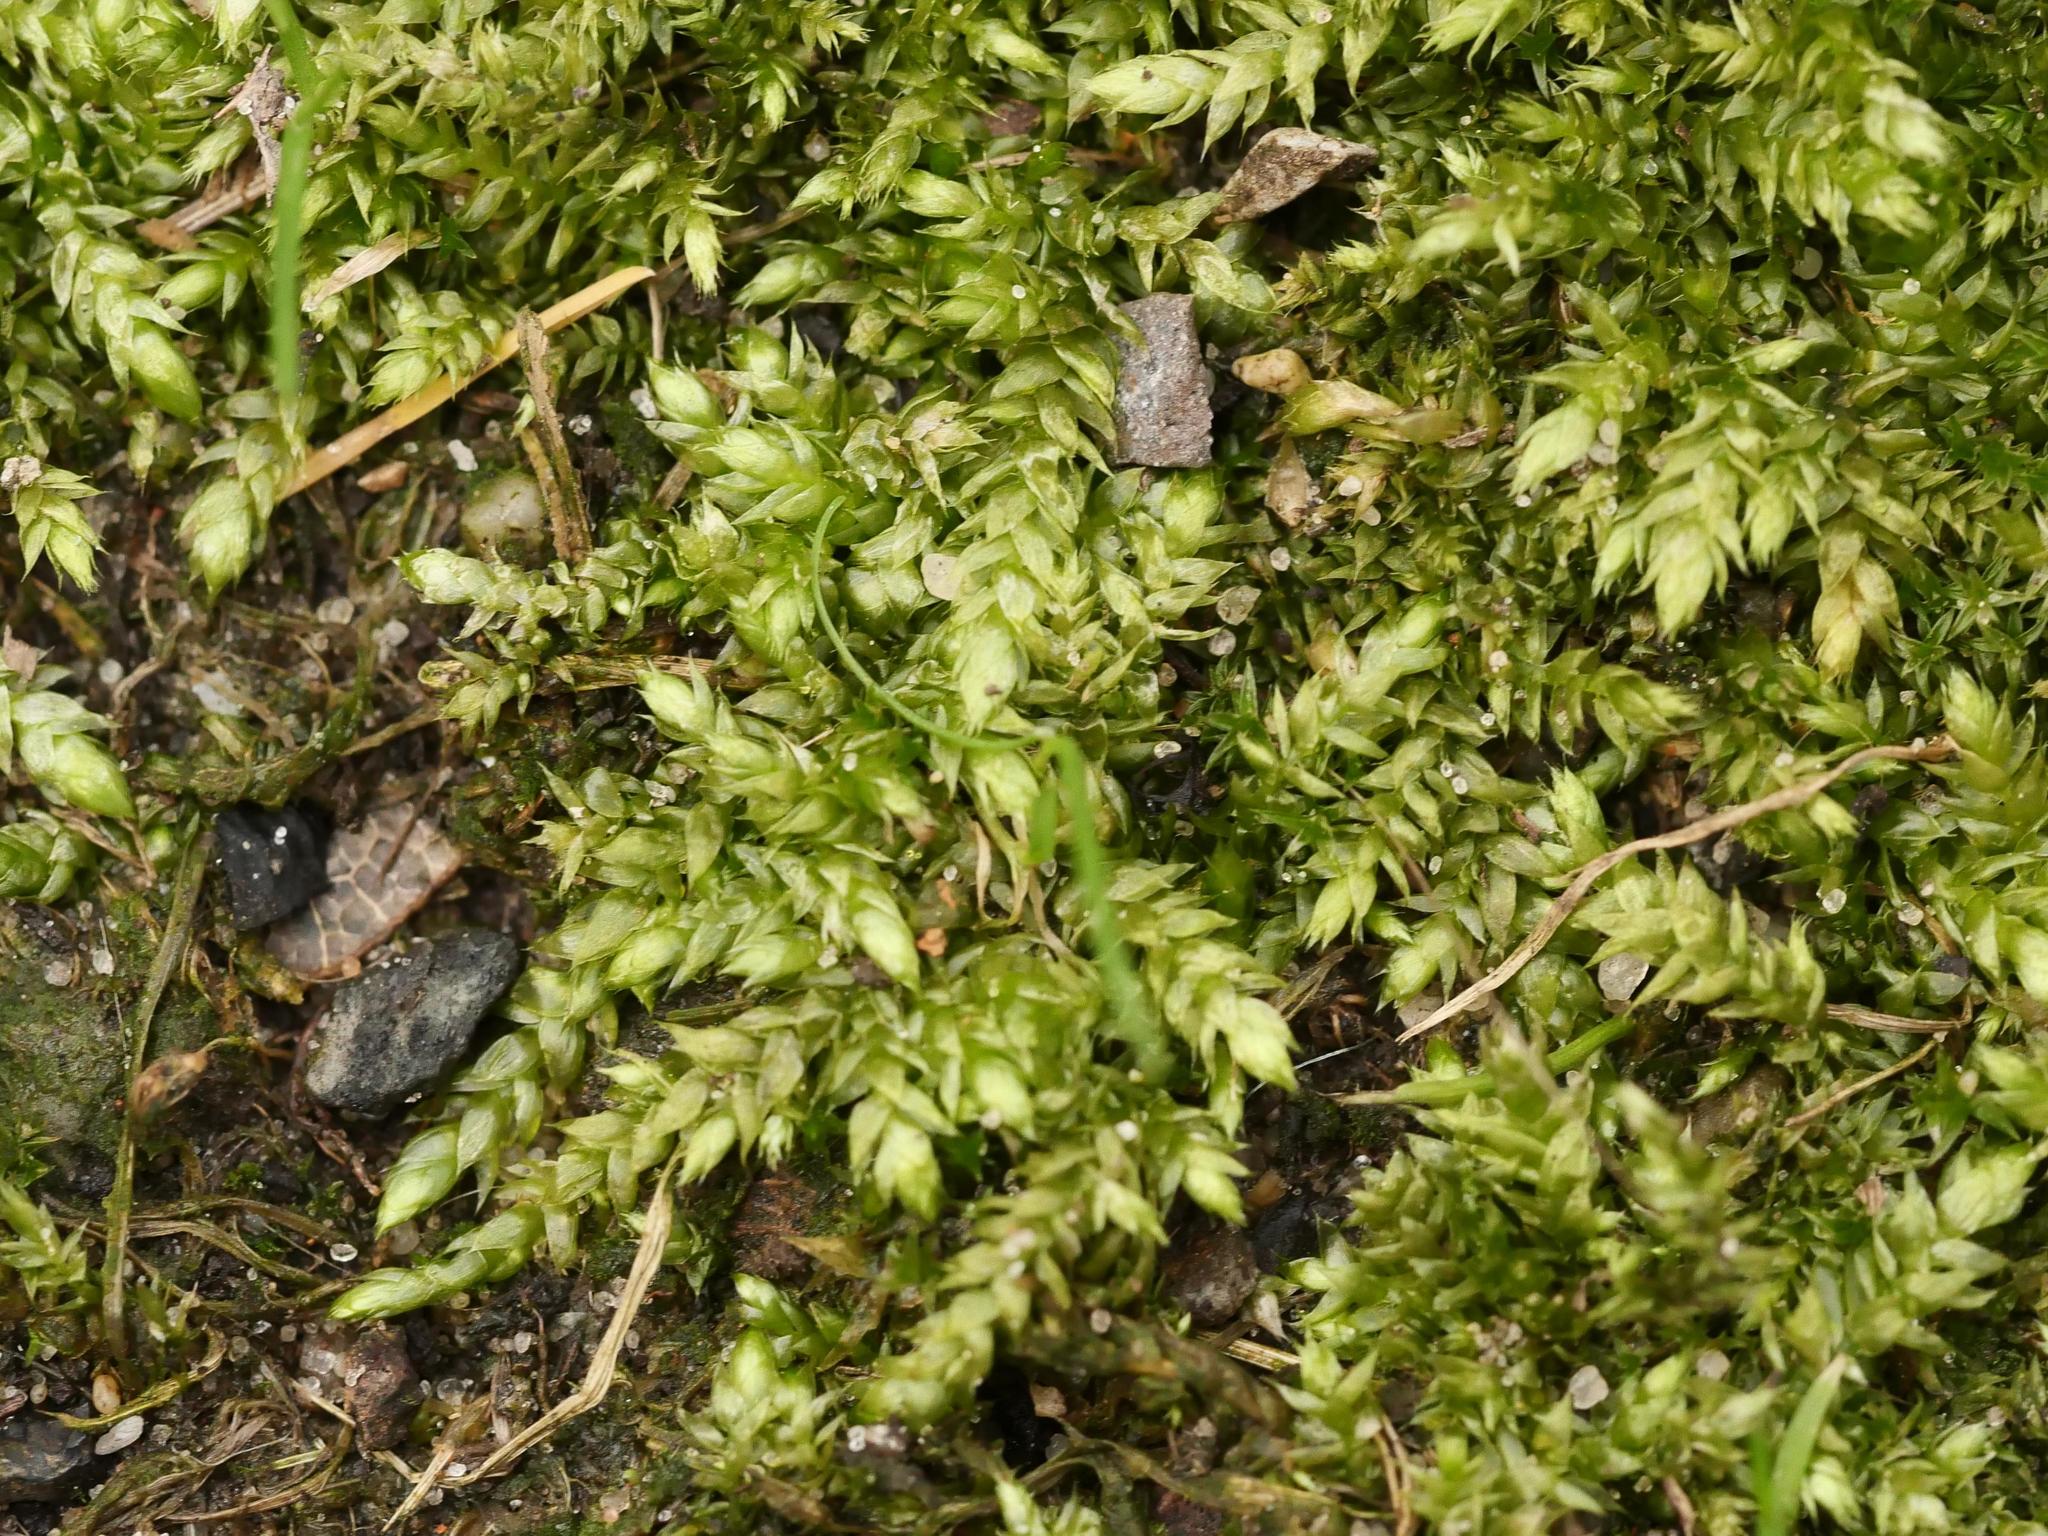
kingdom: Plantae
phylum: Bryophyta
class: Bryopsida
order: Hypnales
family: Brachytheciaceae
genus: Brachythecium
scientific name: Brachythecium rutabulum
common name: Rough-stalked feather-moss
